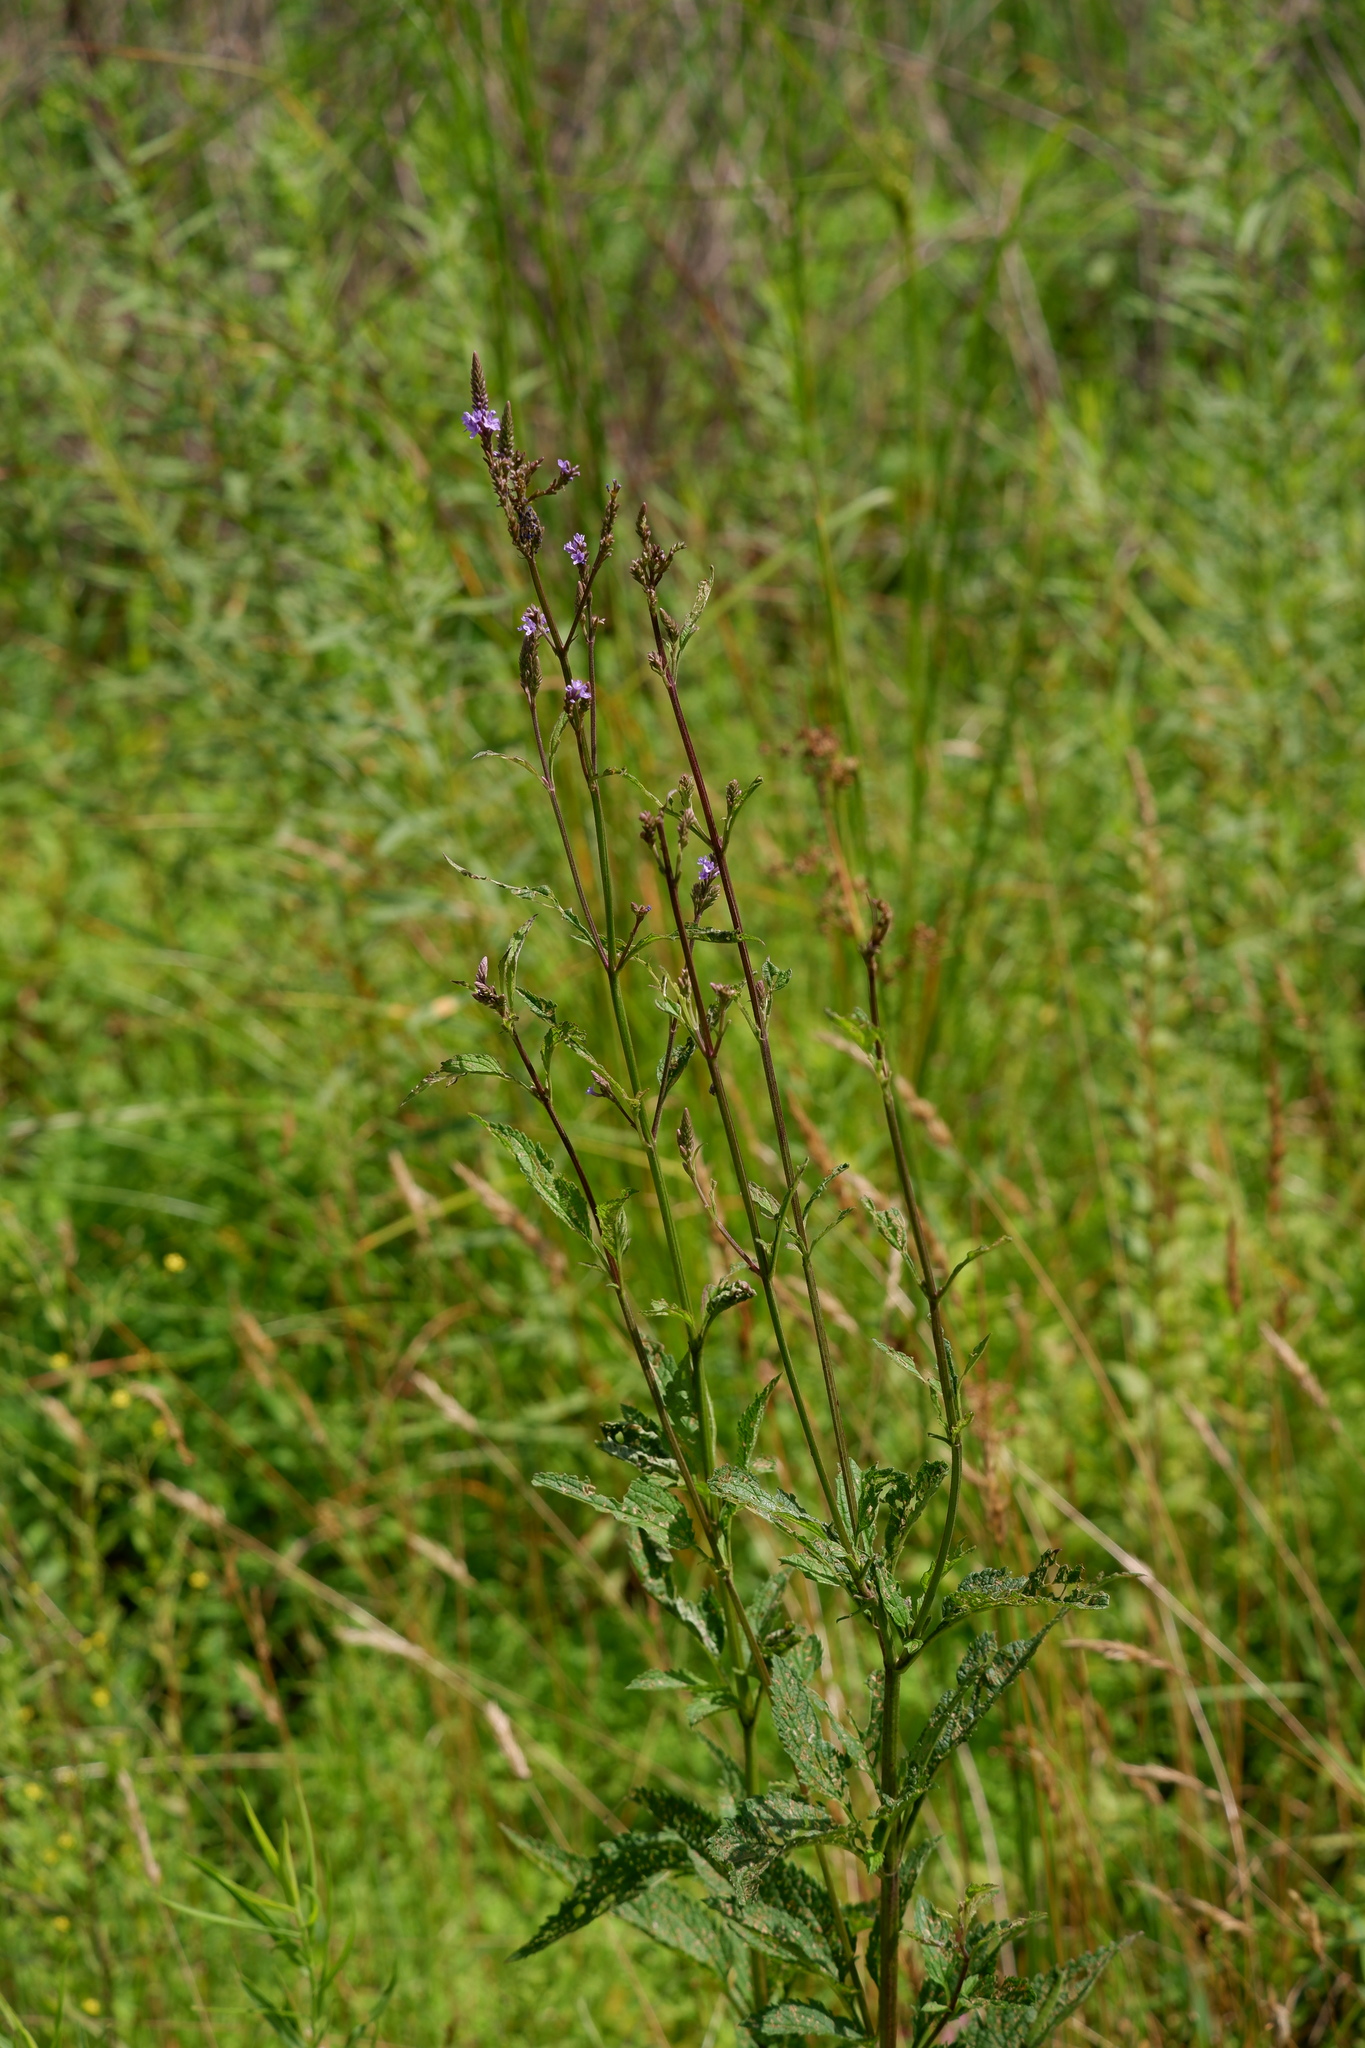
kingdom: Plantae
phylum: Tracheophyta
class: Magnoliopsida
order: Lamiales
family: Verbenaceae
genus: Verbena
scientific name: Verbena hastata
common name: American blue vervain
